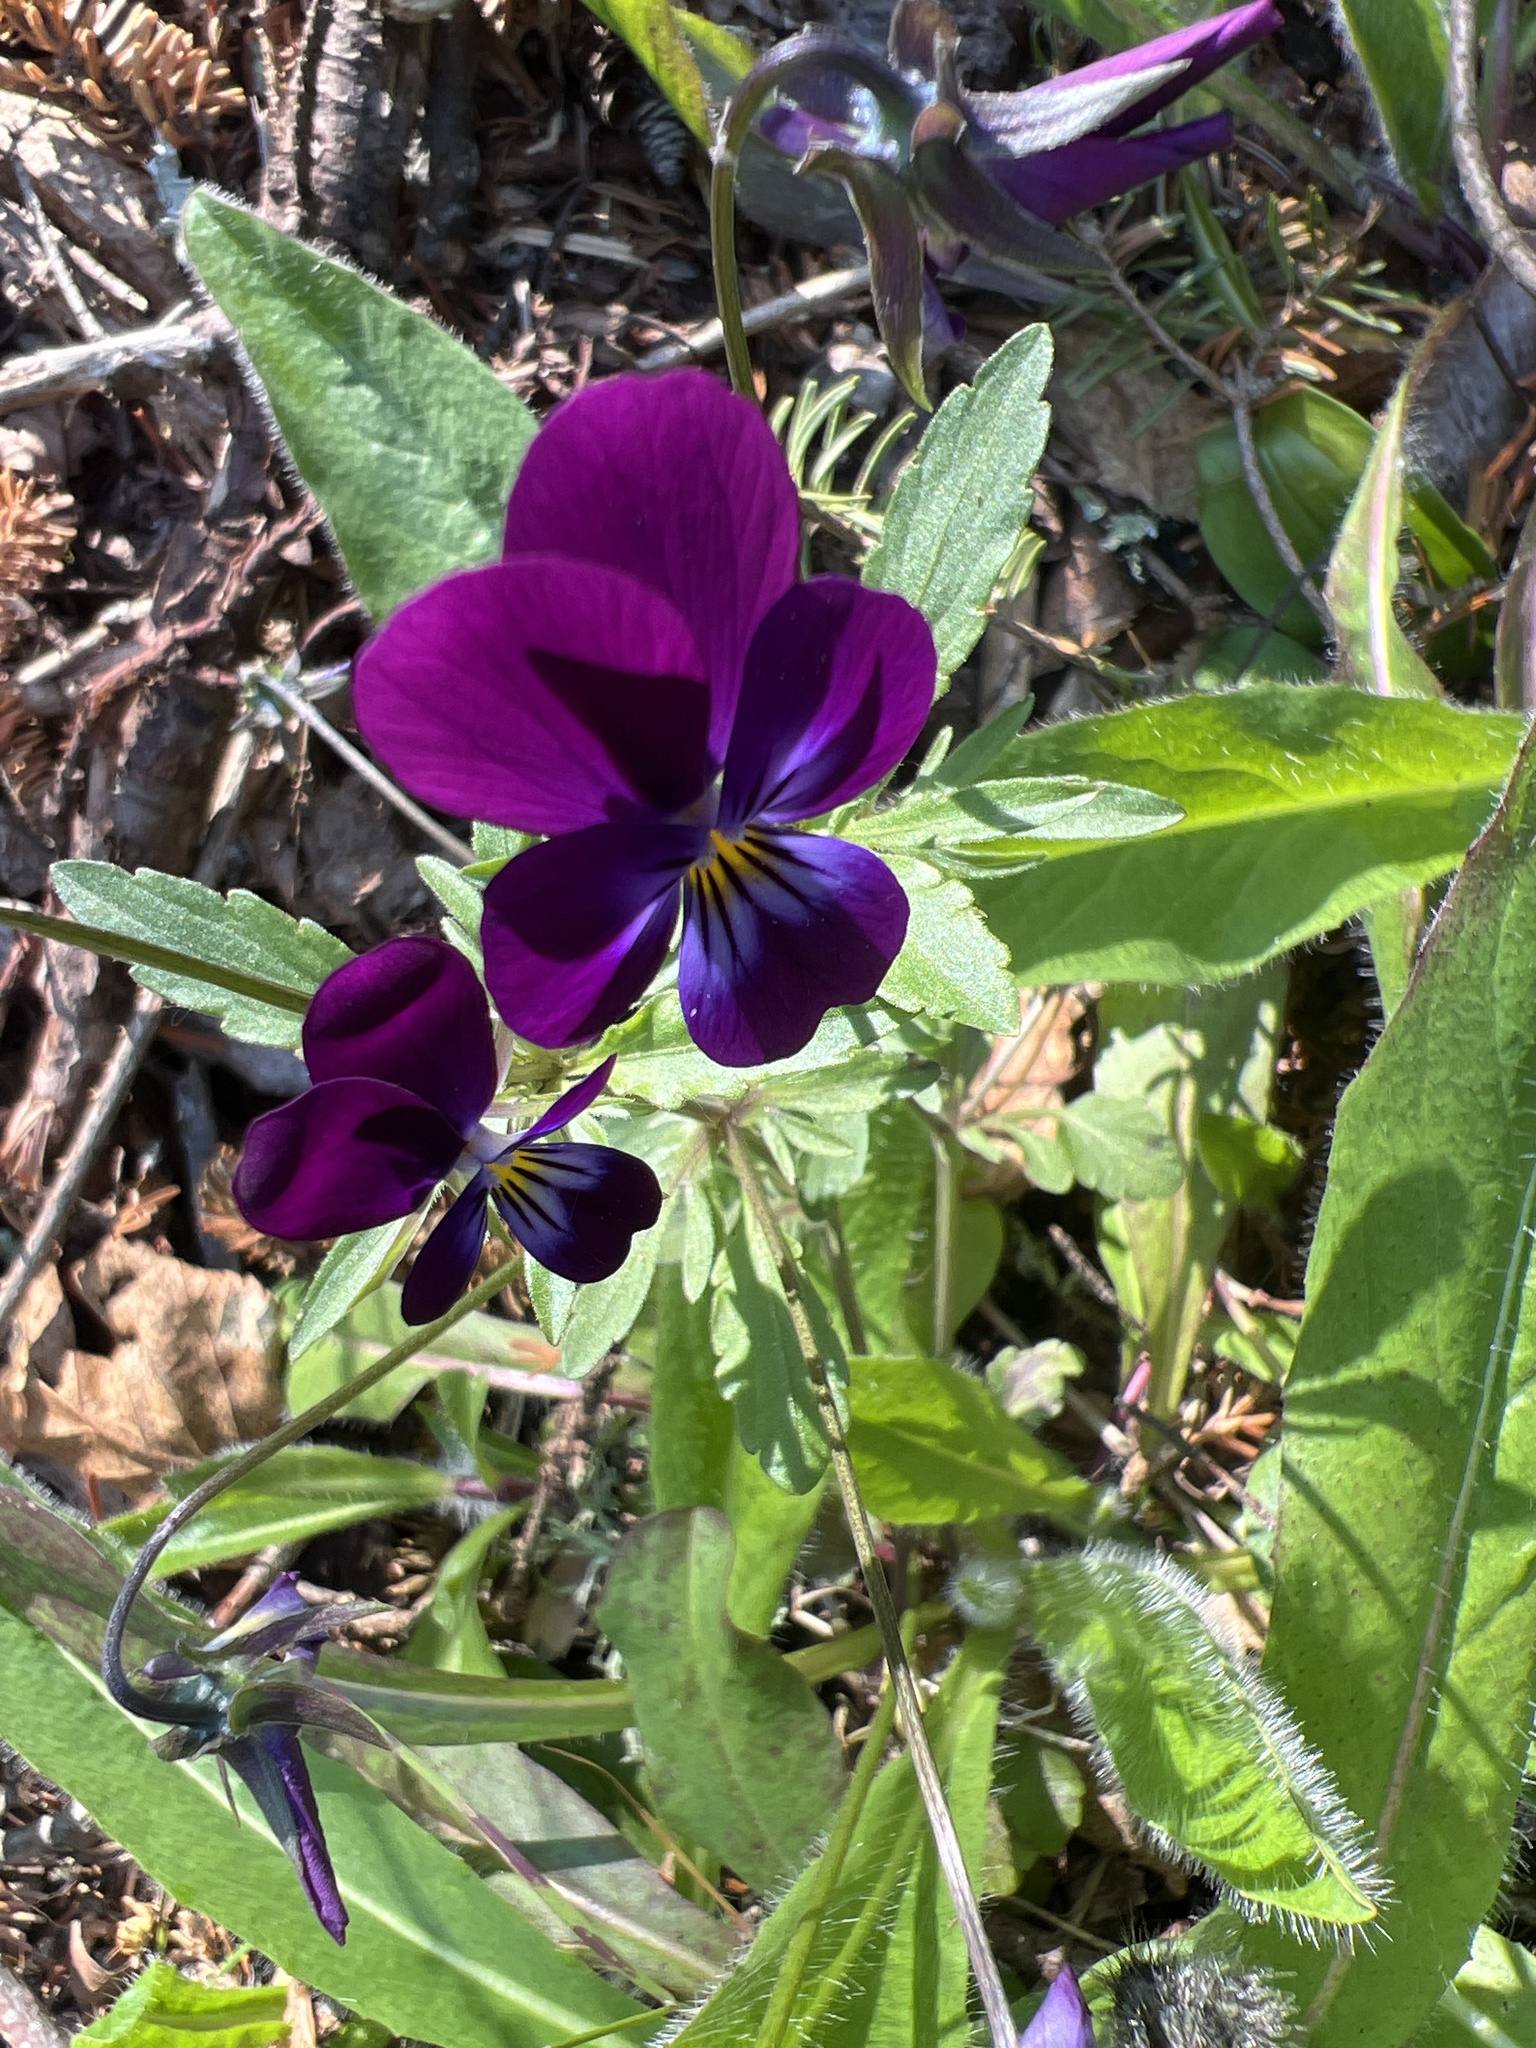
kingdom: Plantae
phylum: Tracheophyta
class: Magnoliopsida
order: Malpighiales
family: Violaceae
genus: Viola
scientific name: Viola williamsii
